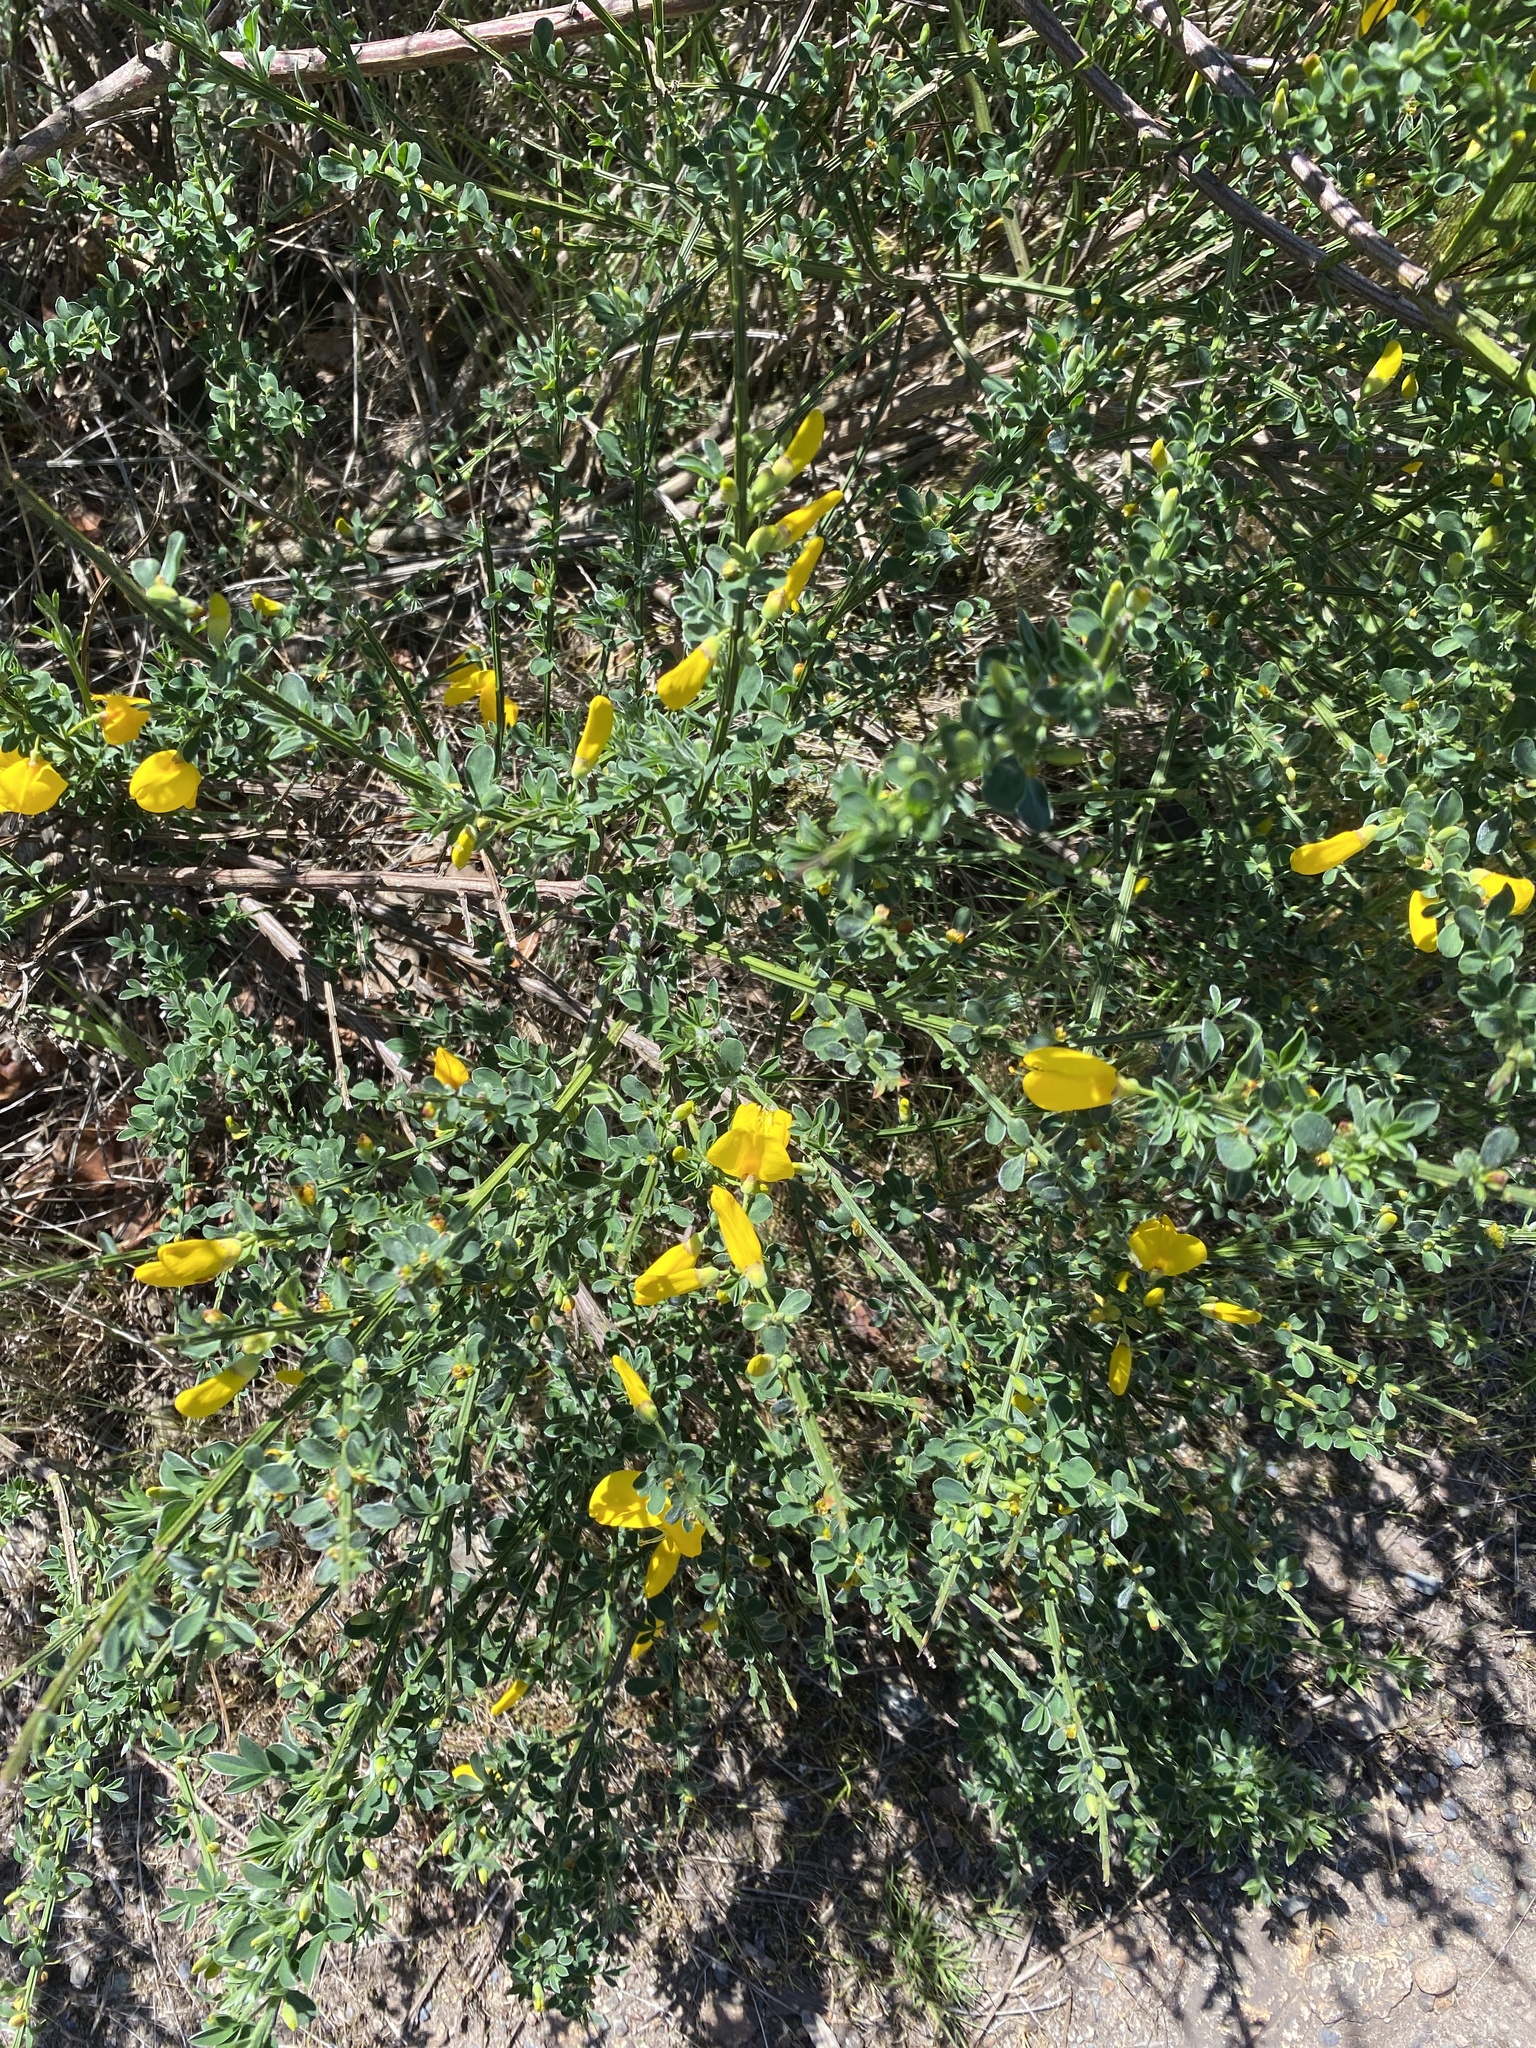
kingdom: Plantae
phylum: Tracheophyta
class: Magnoliopsida
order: Fabales
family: Fabaceae
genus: Cytisus
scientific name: Cytisus scoparius
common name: Scotch broom
